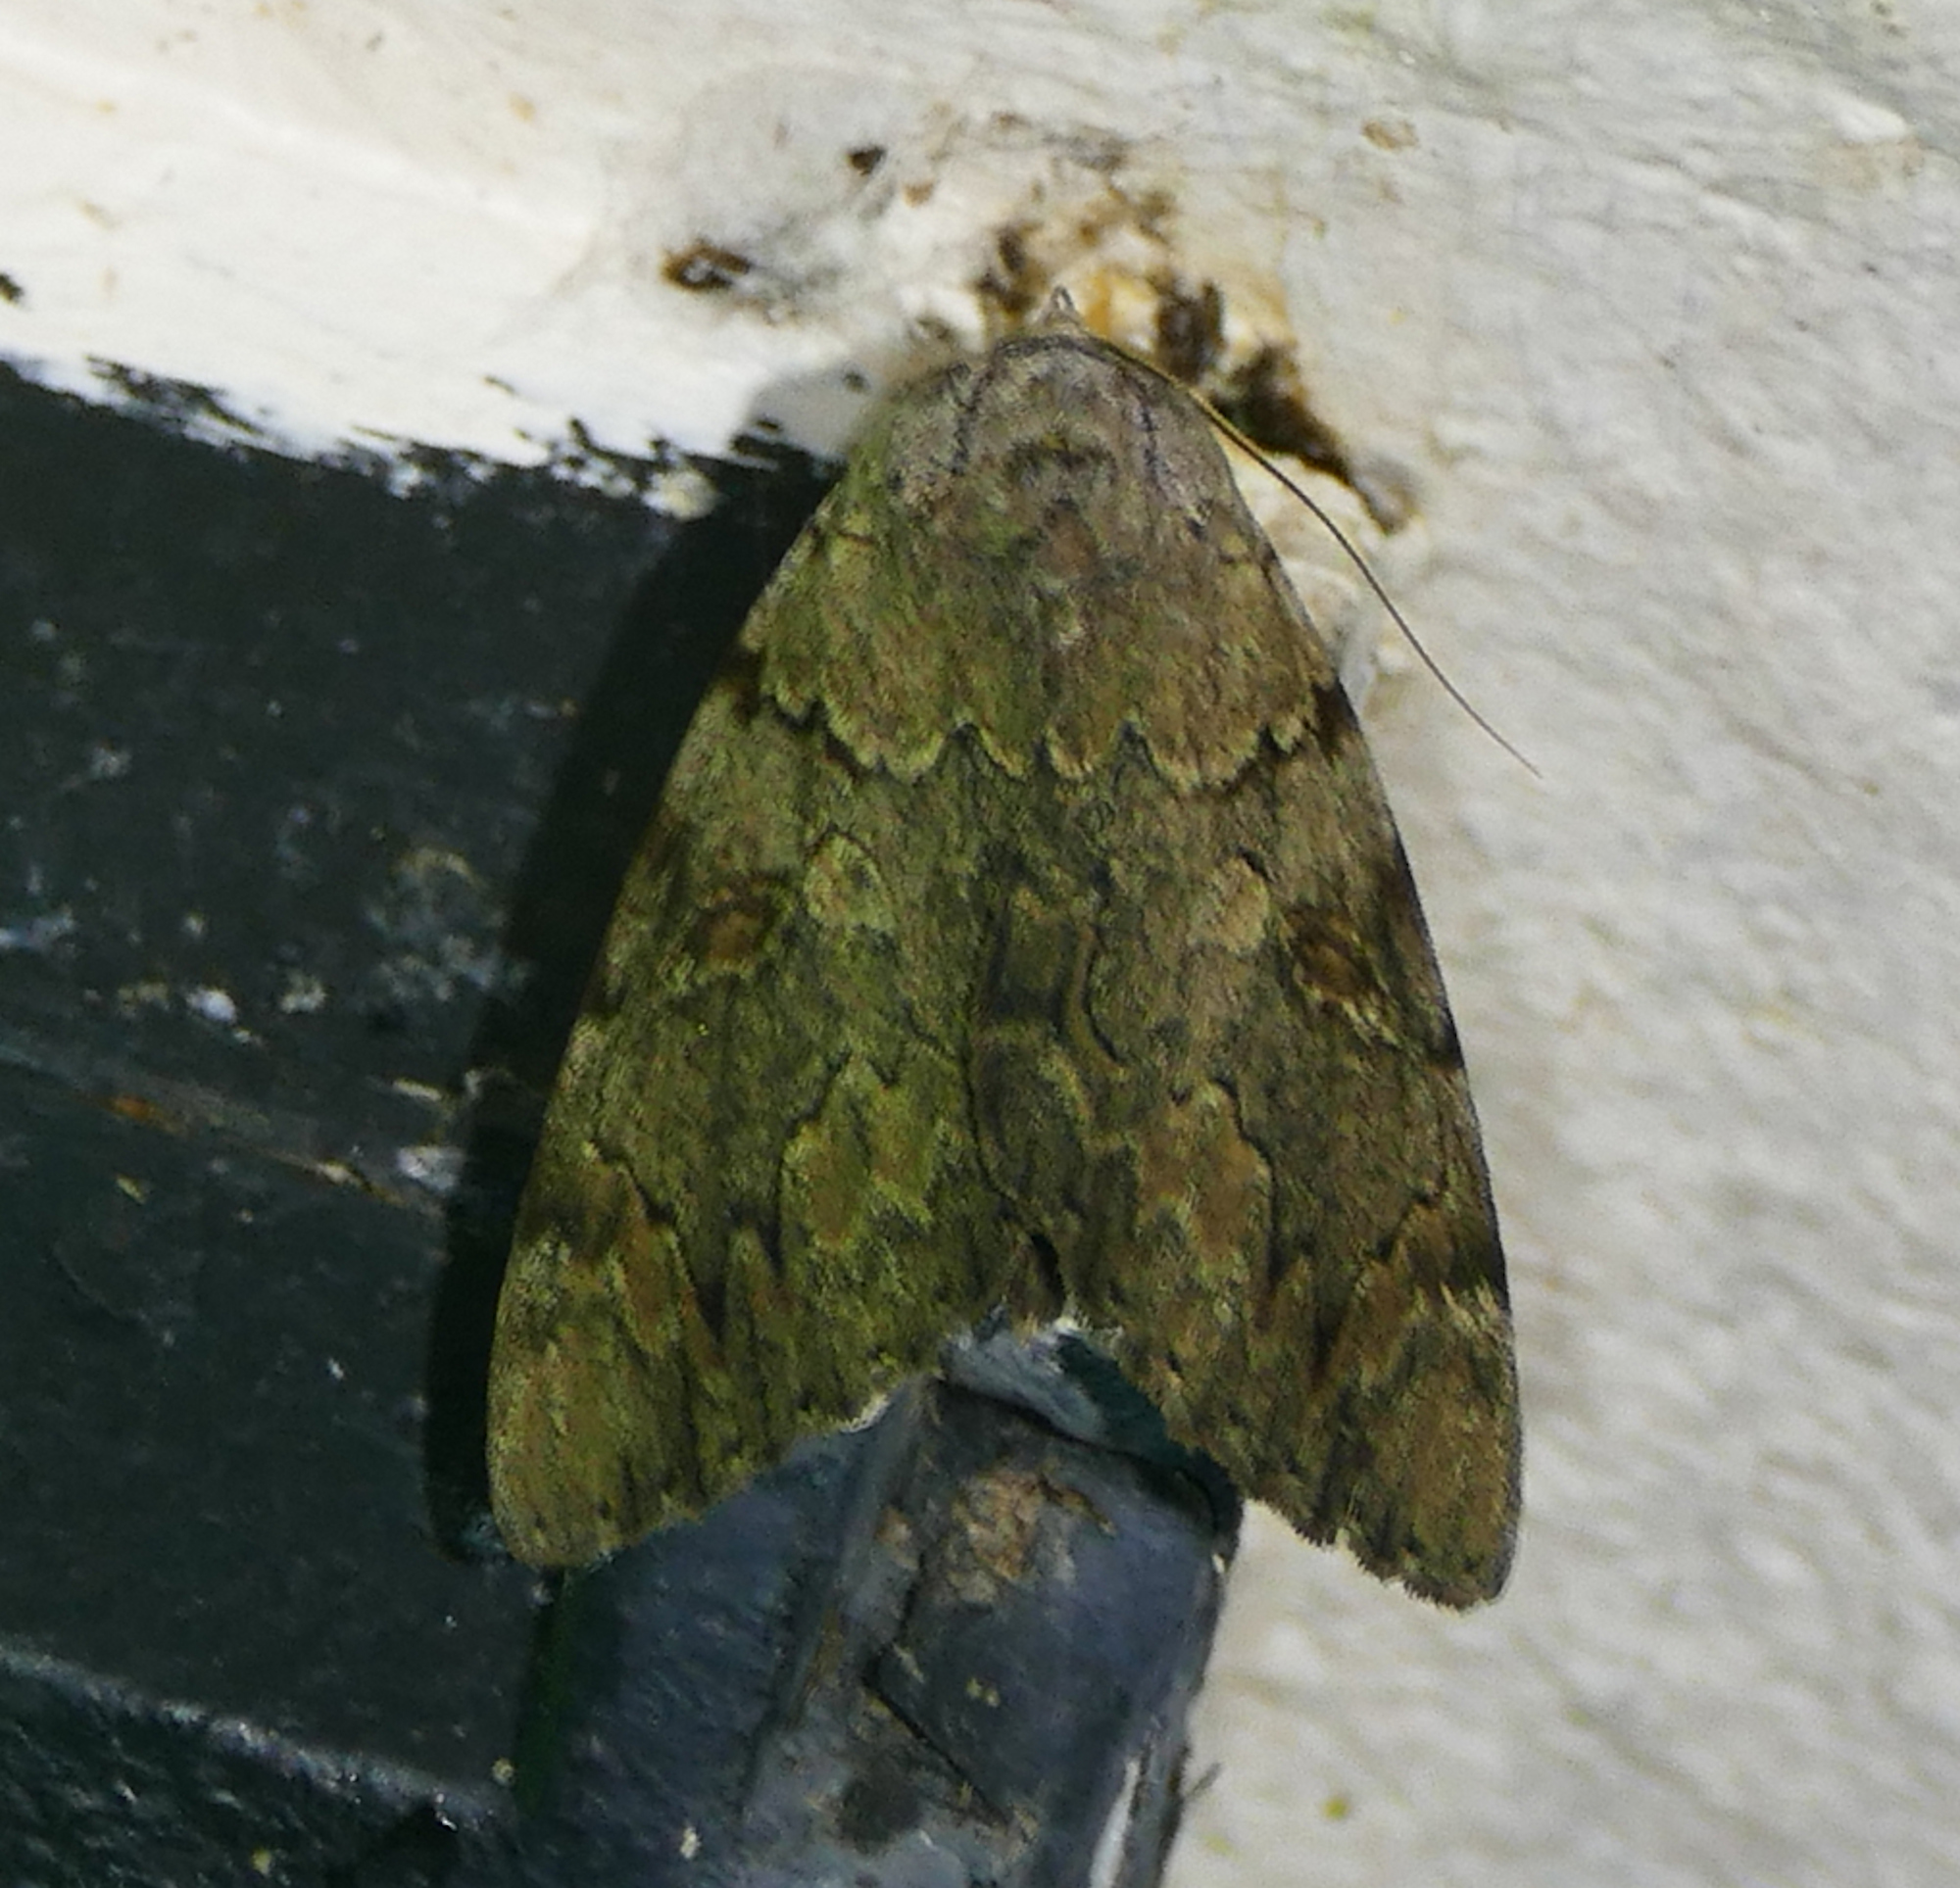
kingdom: Animalia
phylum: Arthropoda
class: Insecta
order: Lepidoptera
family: Erebidae
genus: Catocala
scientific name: Catocala agrippina
